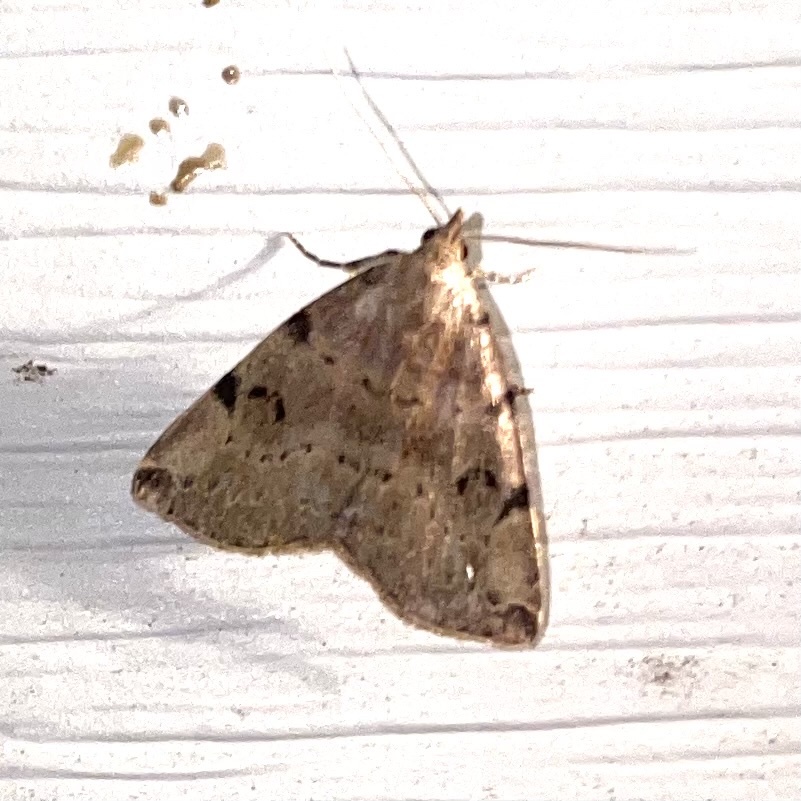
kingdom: Animalia
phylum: Arthropoda
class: Insecta
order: Lepidoptera
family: Erebidae
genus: Zanclognatha
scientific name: Zanclognatha lituralis
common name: Lettered fan-foot
